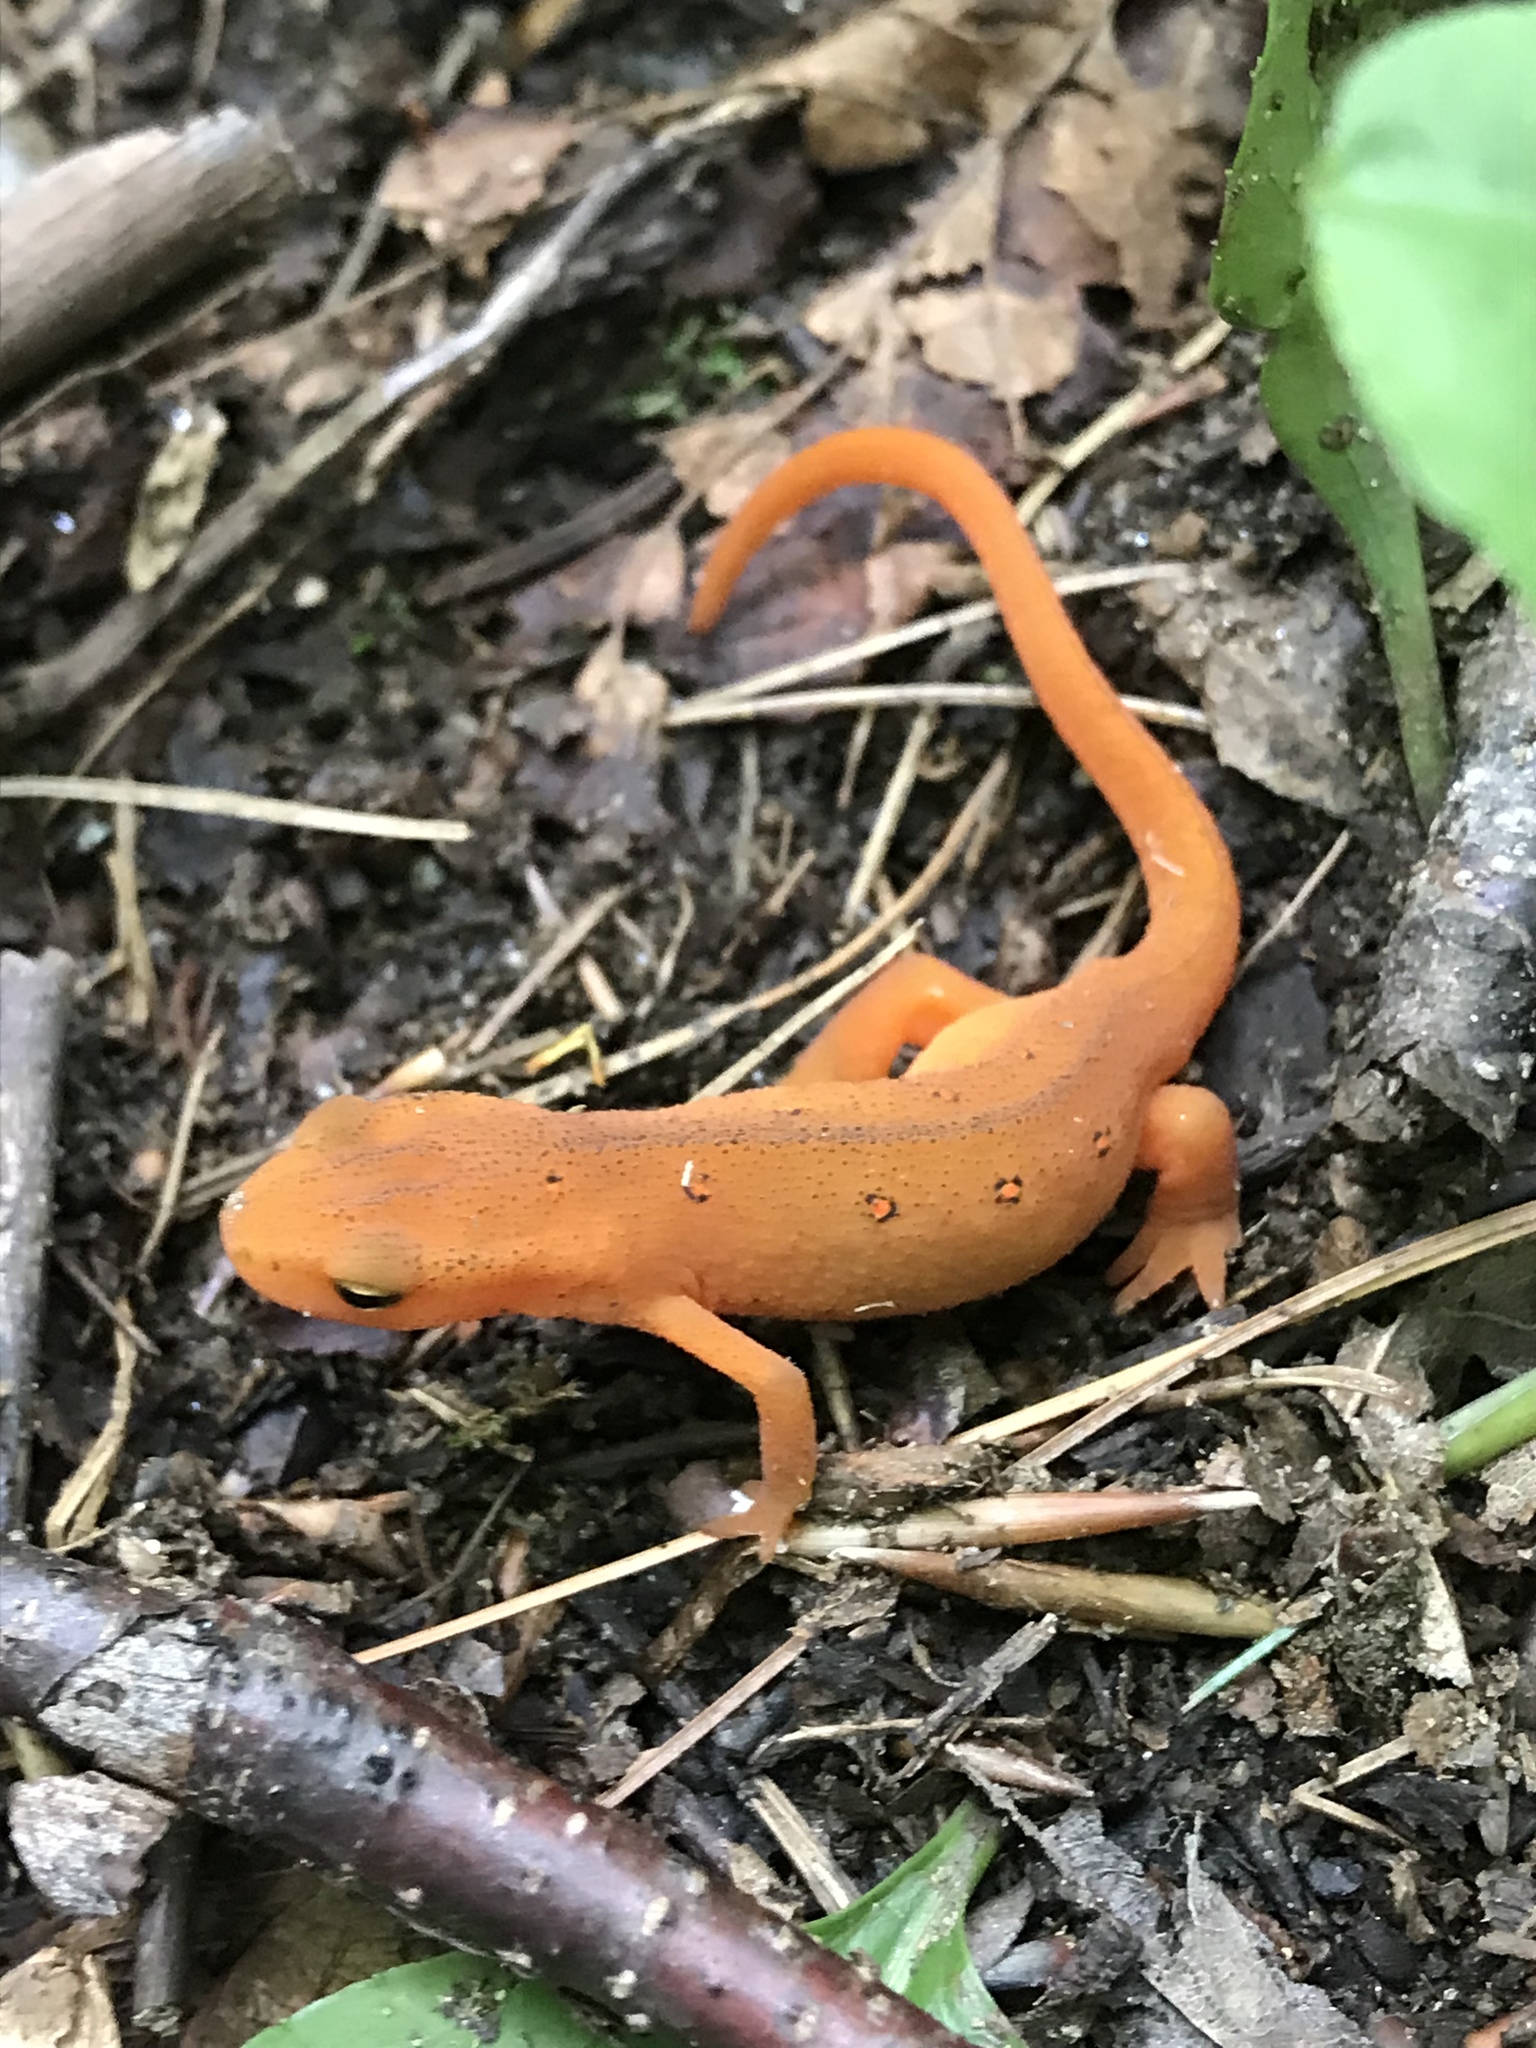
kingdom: Animalia
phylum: Chordata
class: Amphibia
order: Caudata
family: Salamandridae
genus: Notophthalmus
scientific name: Notophthalmus viridescens
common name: Eastern newt
